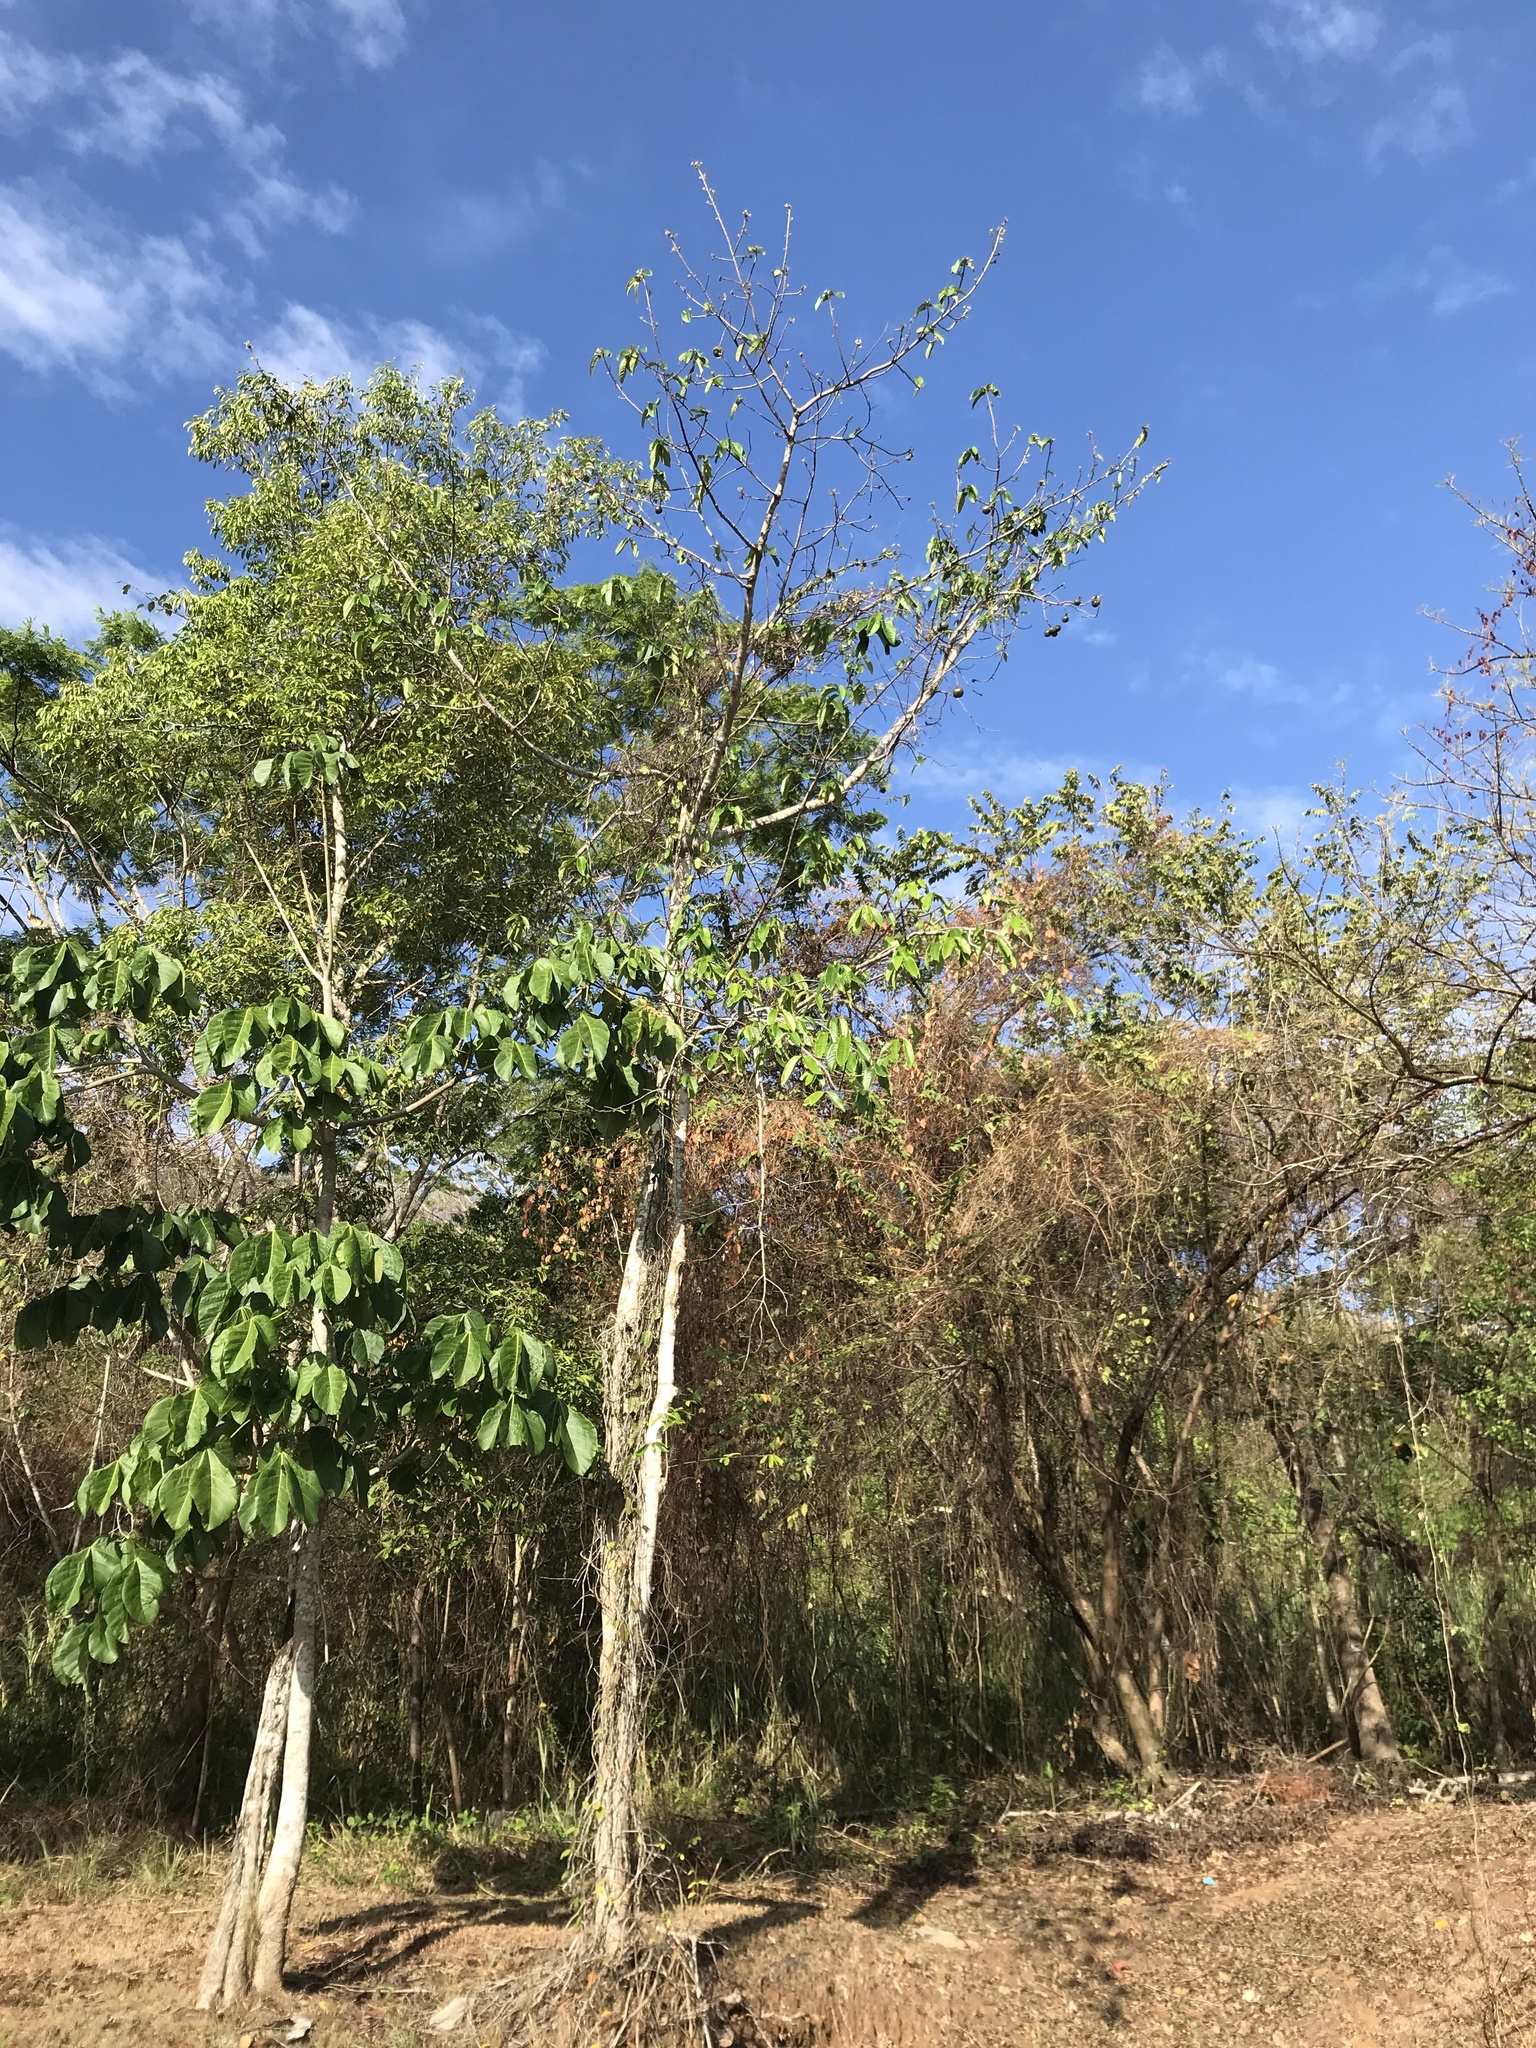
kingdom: Plantae
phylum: Tracheophyta
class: Magnoliopsida
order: Malpighiales
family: Salicaceae
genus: Casearia
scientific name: Casearia icosandra
